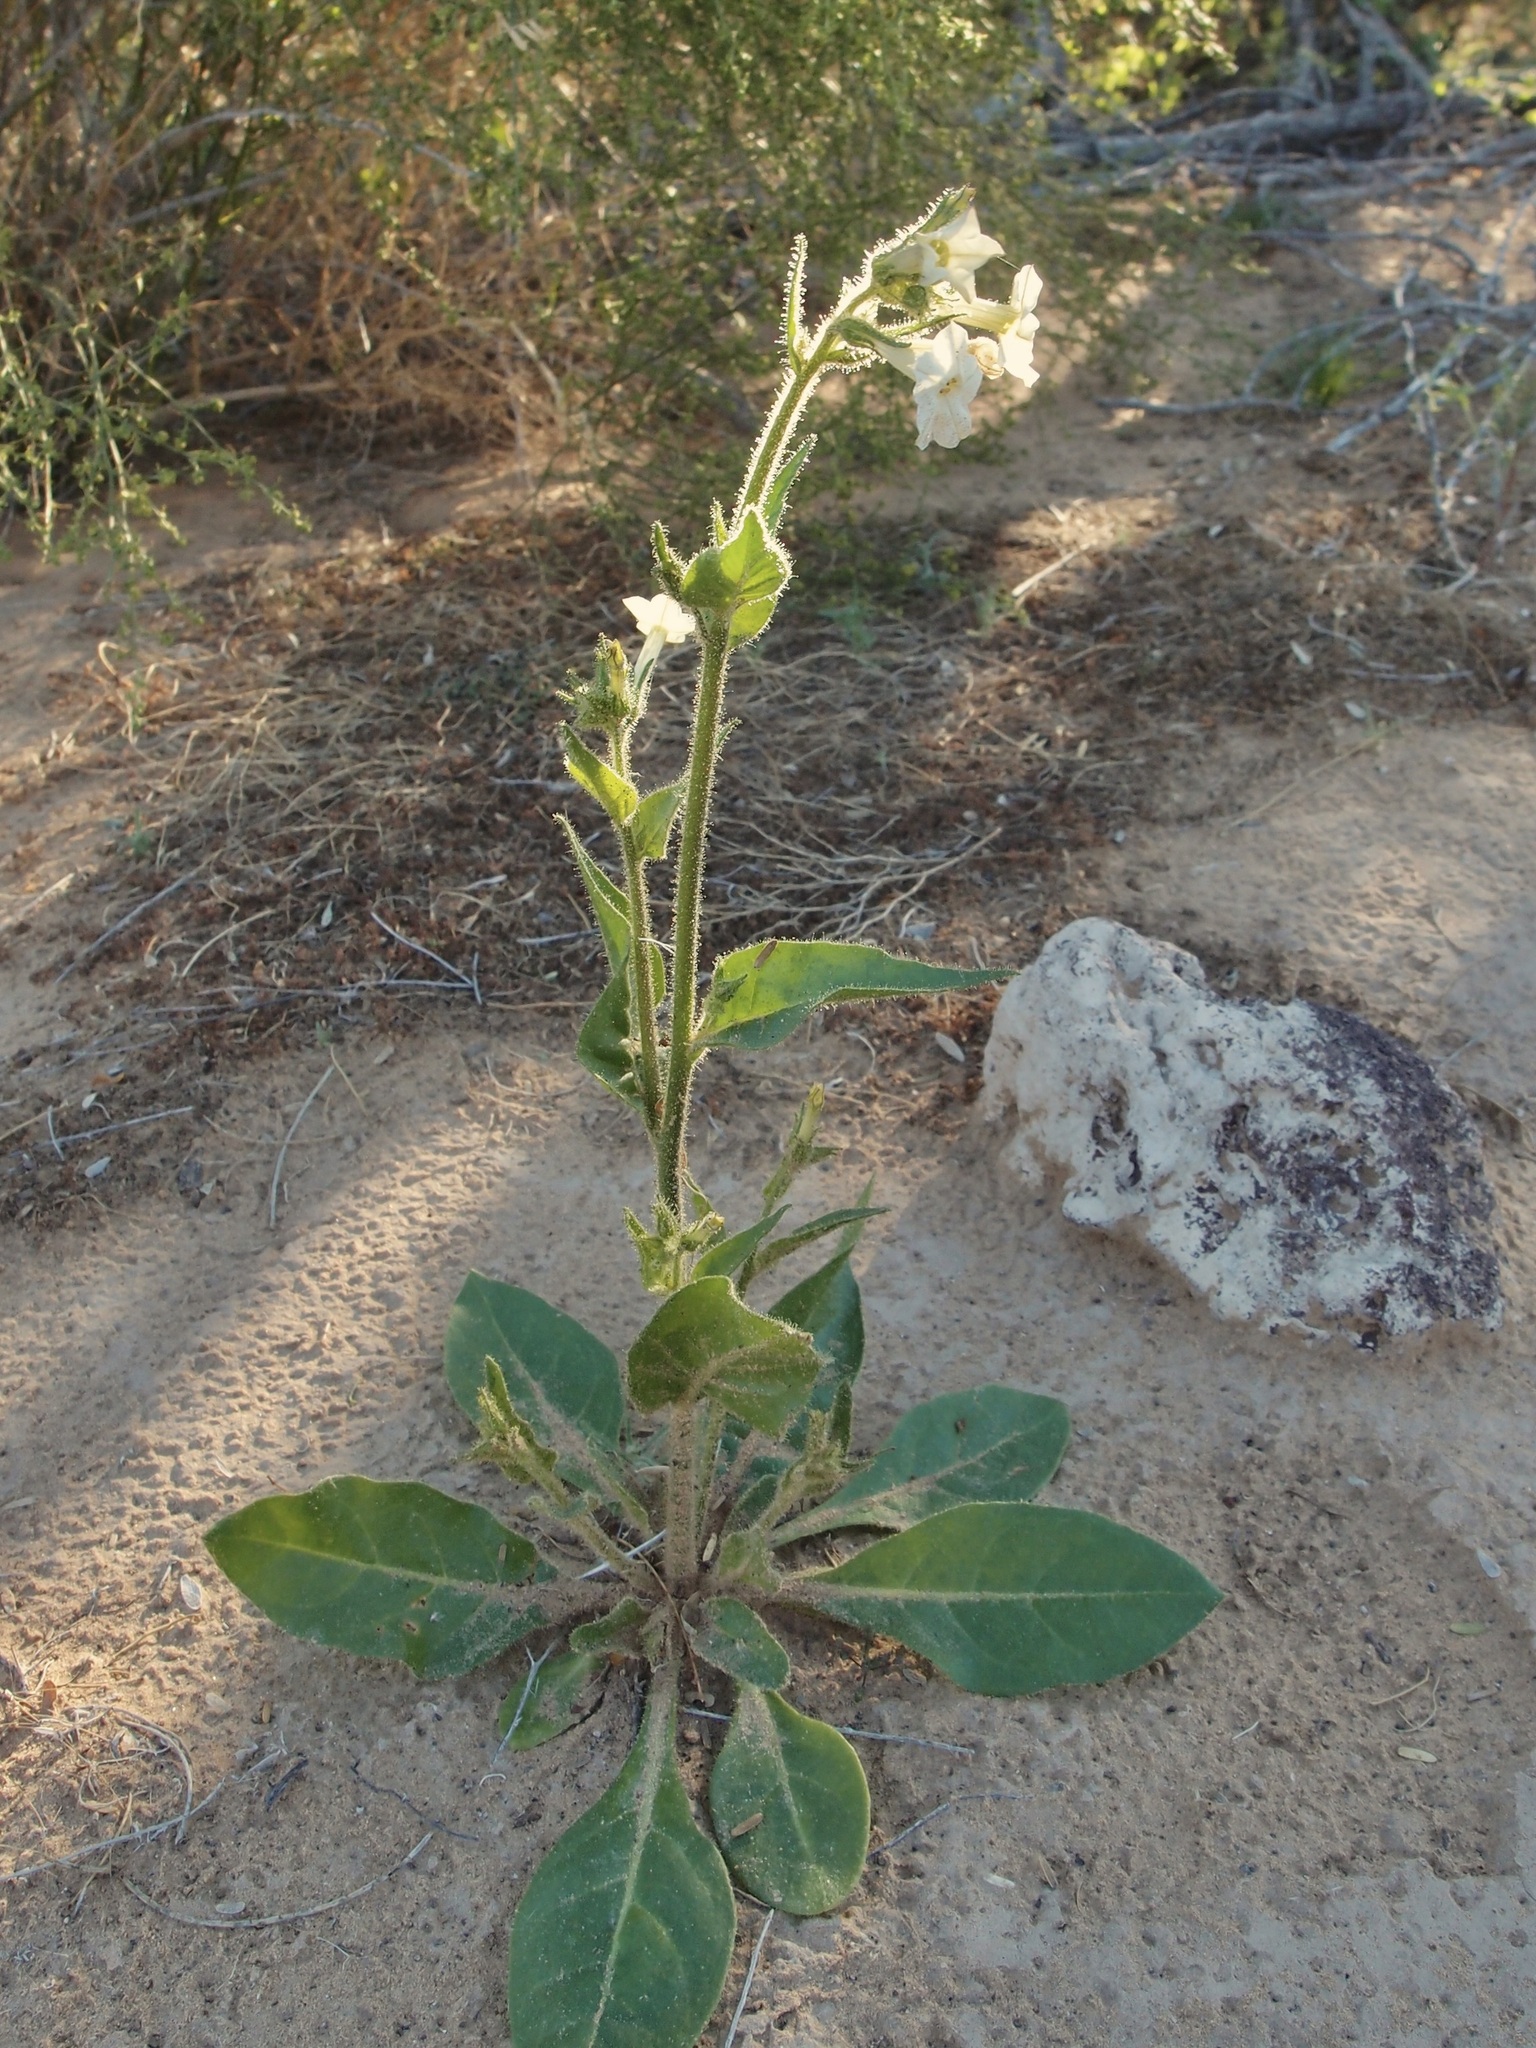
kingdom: Plantae
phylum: Tracheophyta
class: Magnoliopsida
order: Solanales
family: Solanaceae
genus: Nicotiana
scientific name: Nicotiana clevelandii
